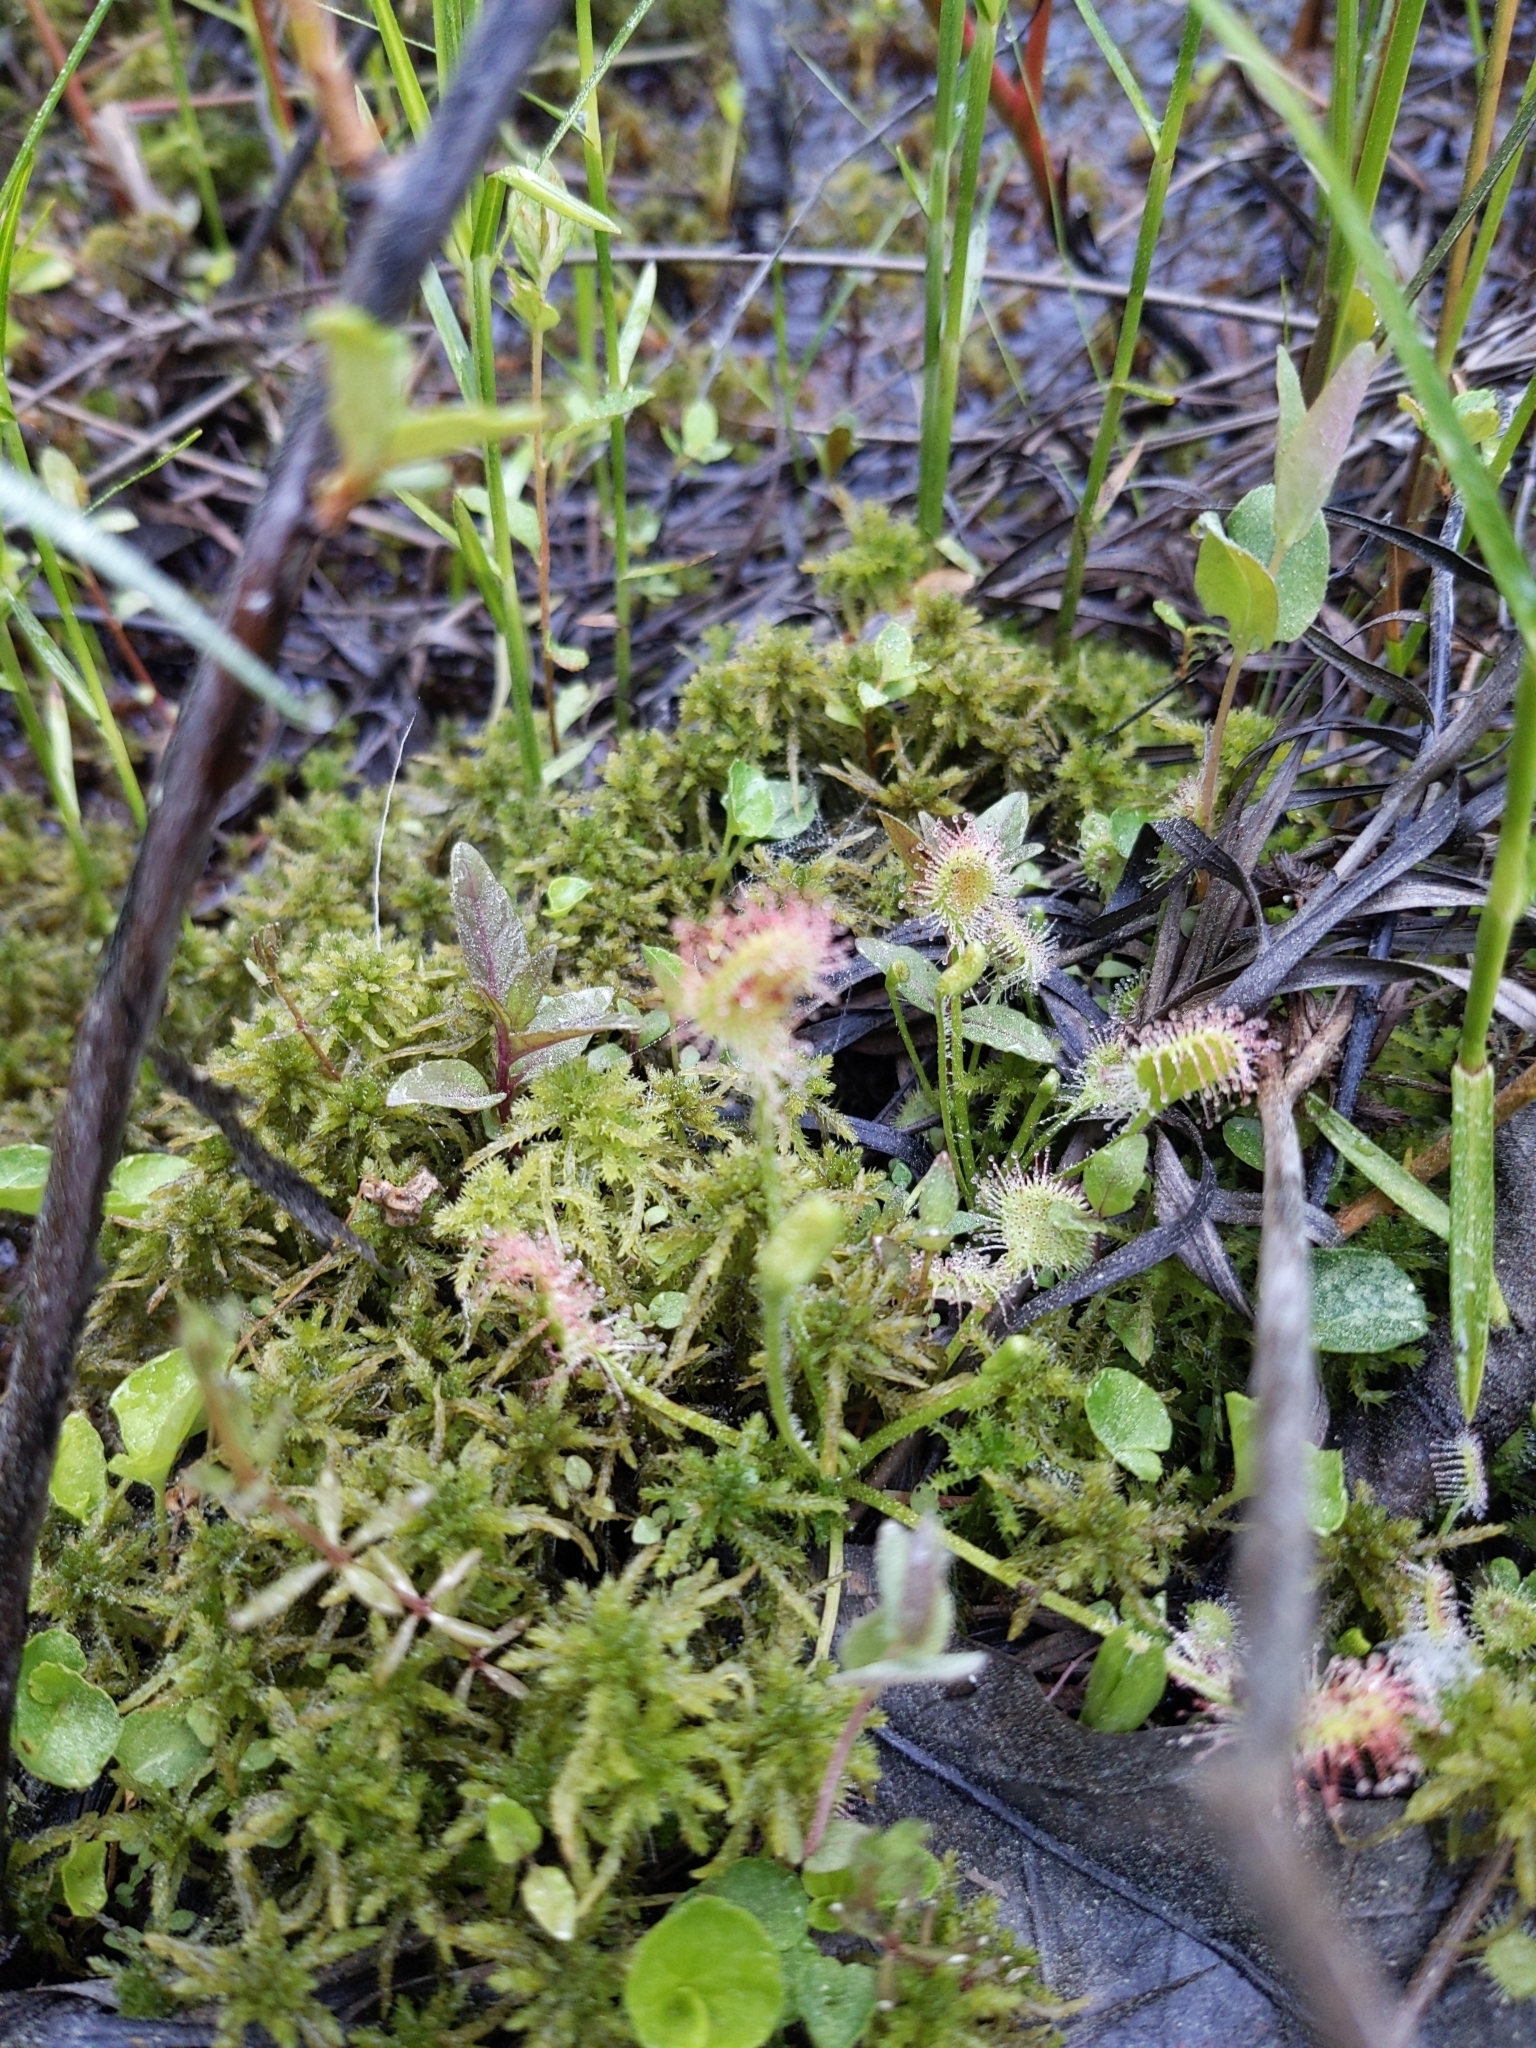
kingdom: Plantae
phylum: Tracheophyta
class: Magnoliopsida
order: Caryophyllales
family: Droseraceae
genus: Drosera
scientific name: Drosera rotundifolia
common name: Round-leaved sundew
